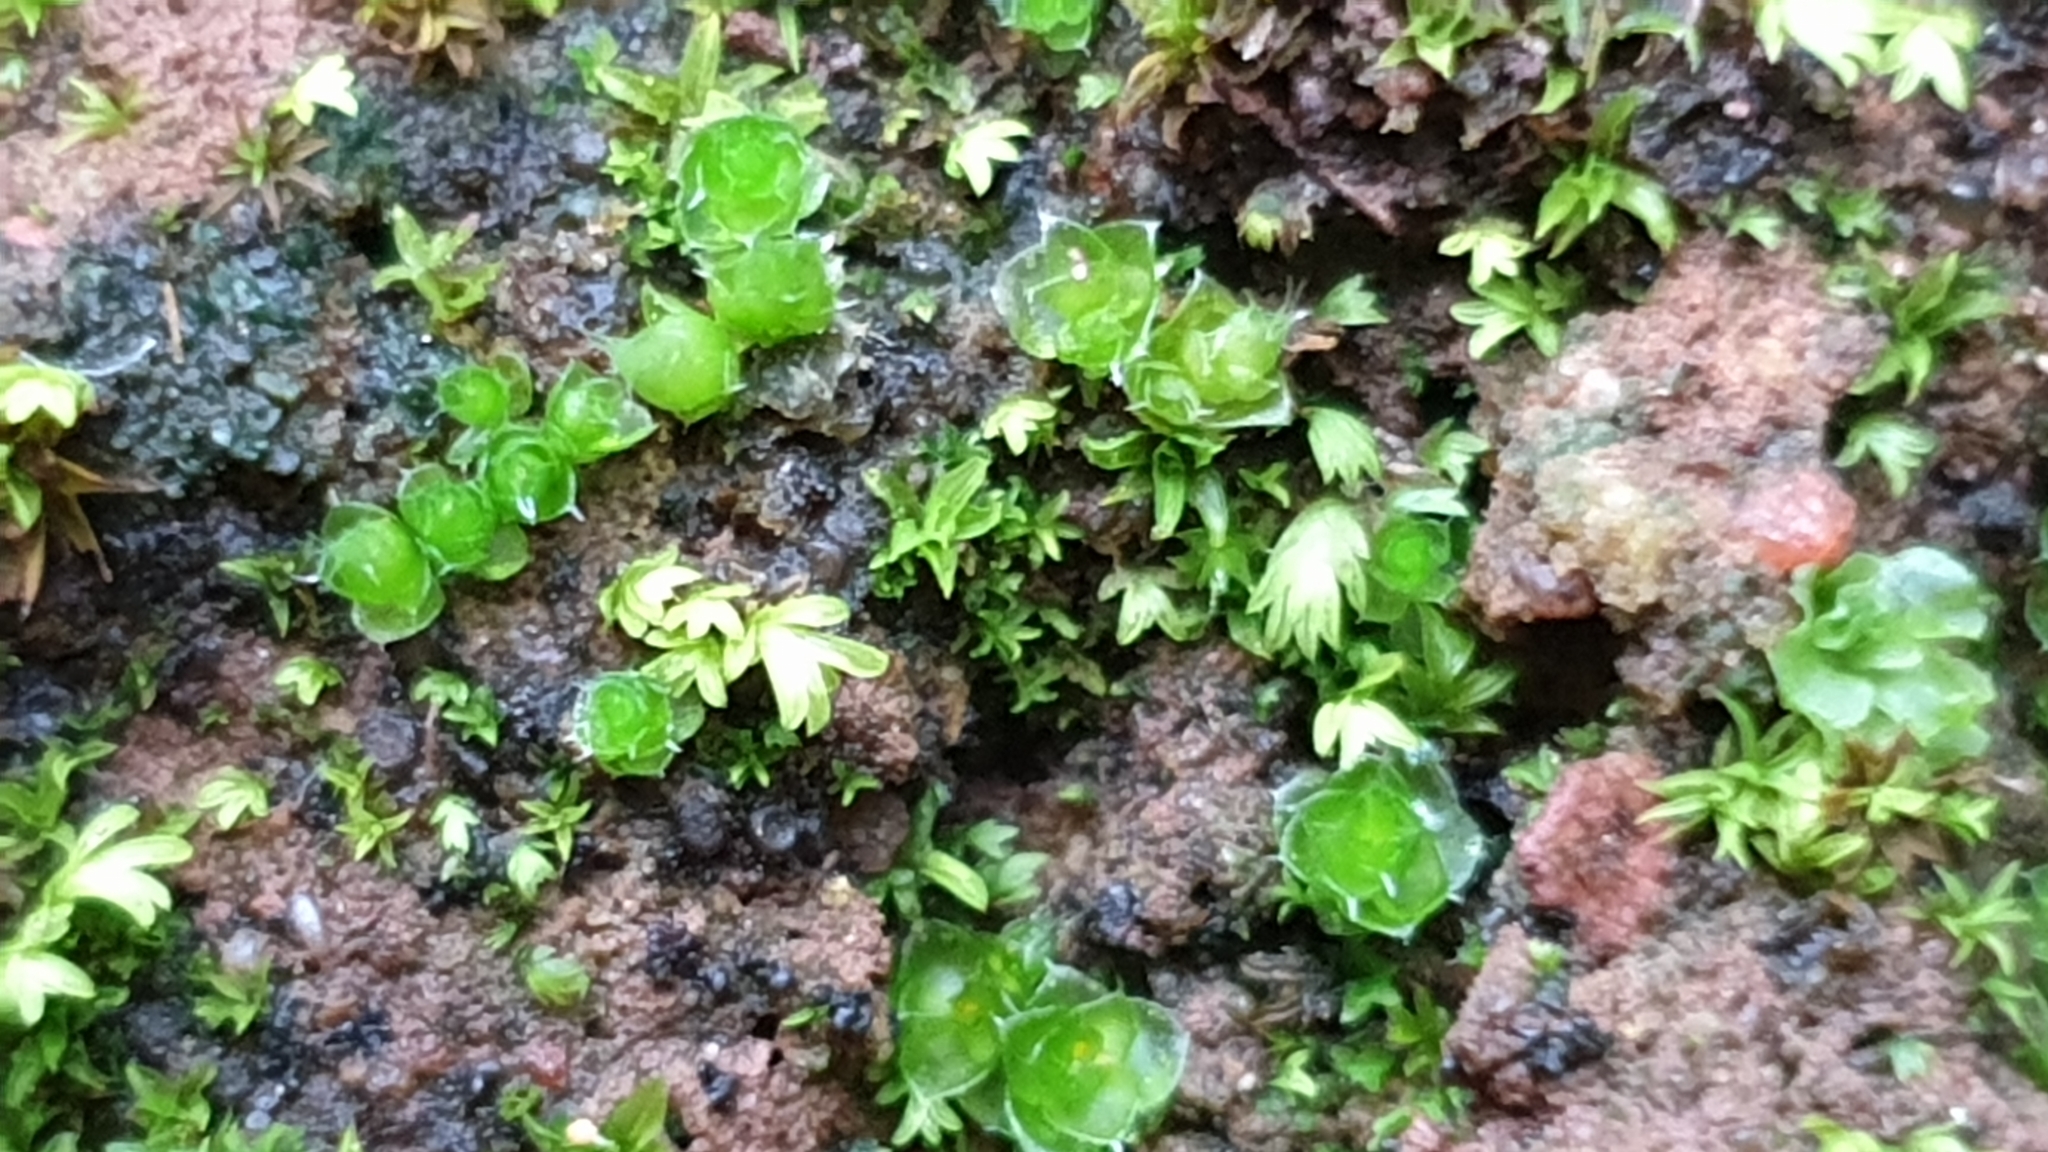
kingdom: Plantae
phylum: Bryophyta
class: Bryopsida
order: Gigaspermales
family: Gigaspermaceae
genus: Gigaspermum
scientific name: Gigaspermum repens
